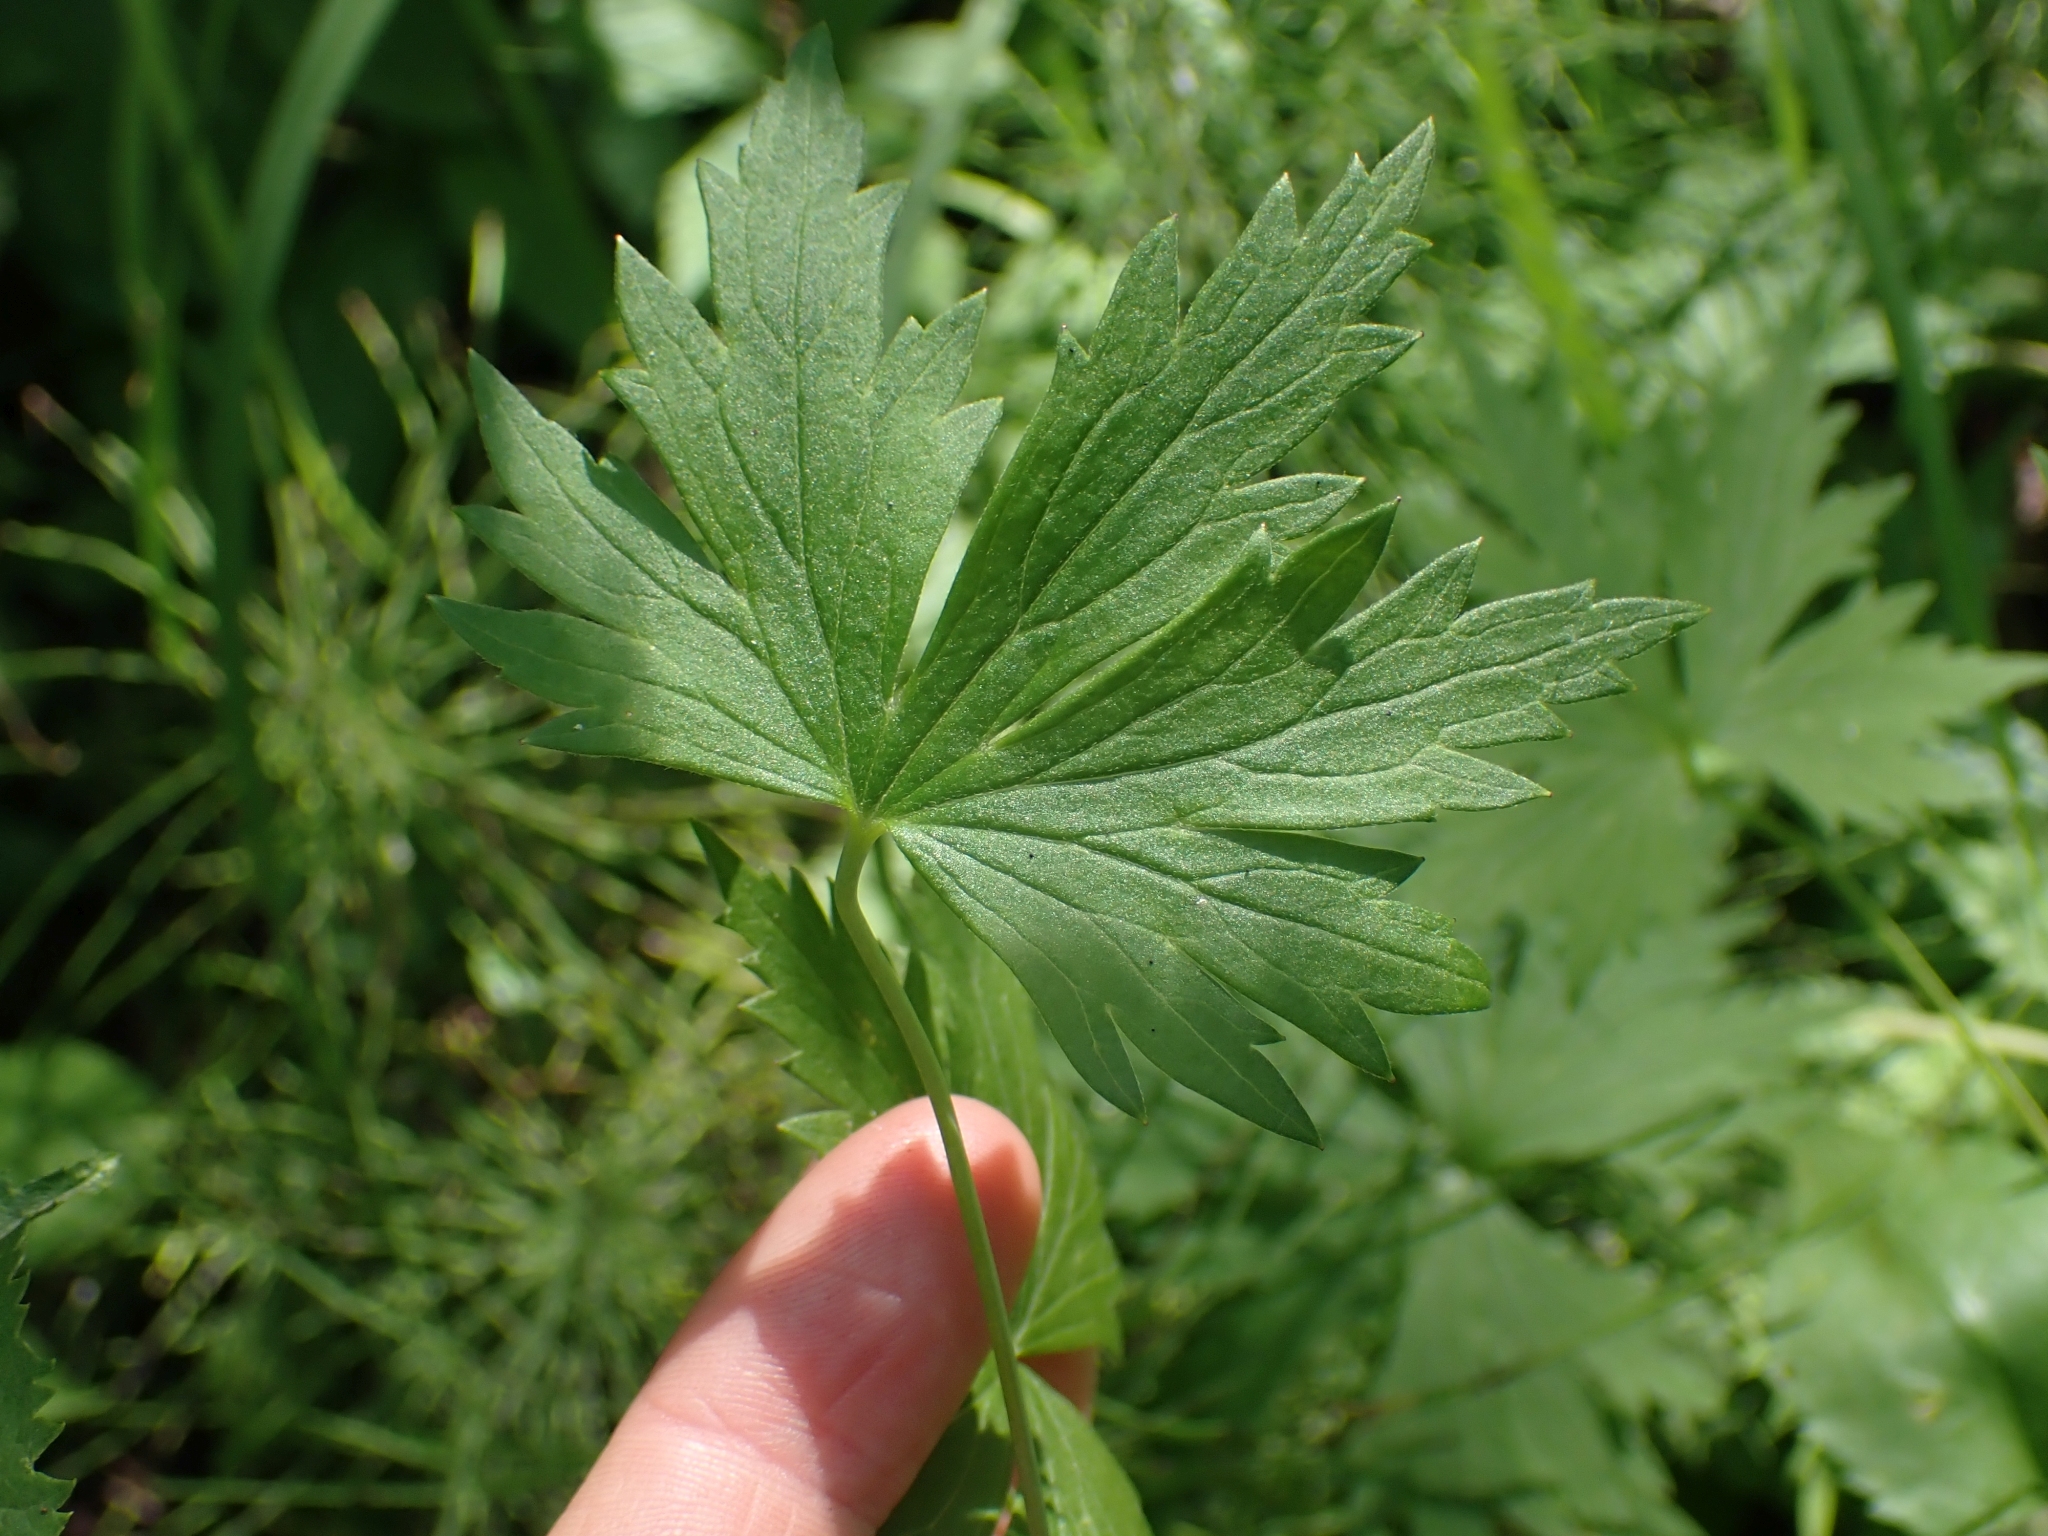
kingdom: Plantae
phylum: Tracheophyta
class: Magnoliopsida
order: Ranunculales
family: Ranunculaceae
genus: Delphinium
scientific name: Delphinium glaucum
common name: Brown's larkspur
